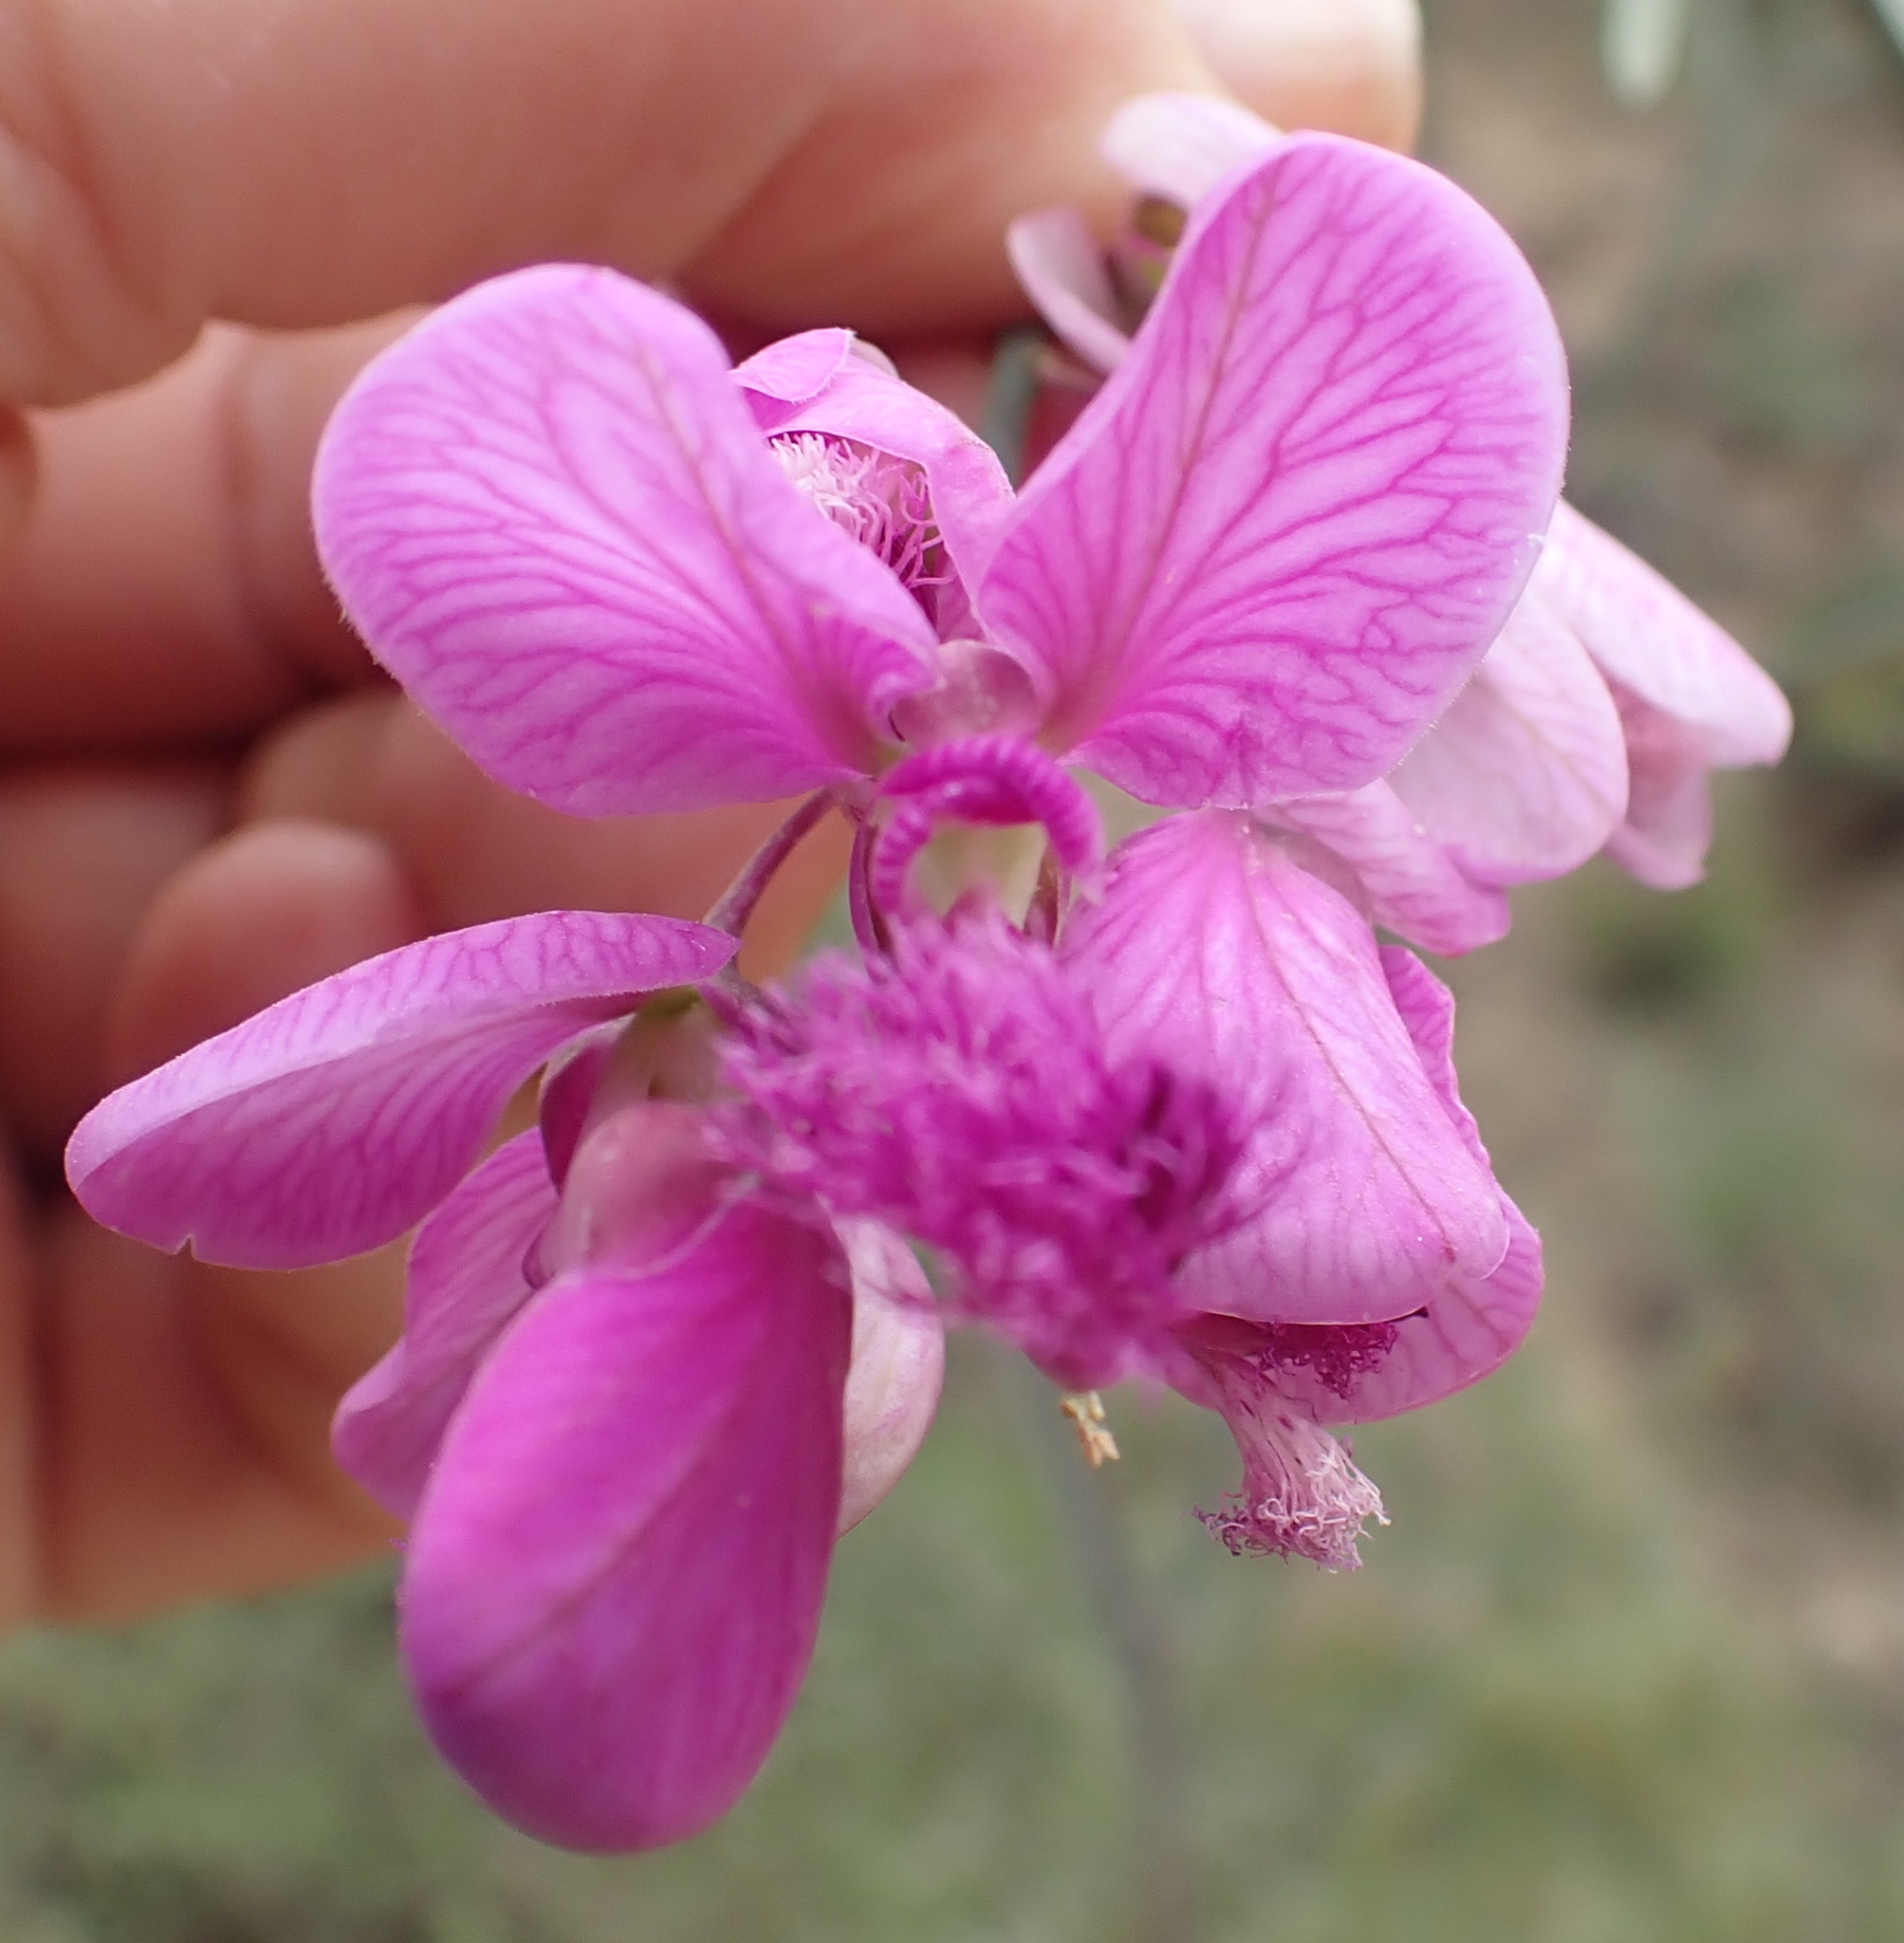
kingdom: Plantae
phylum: Tracheophyta
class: Magnoliopsida
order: Fabales
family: Polygalaceae
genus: Polygala
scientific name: Polygala virgata
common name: Milkwort
